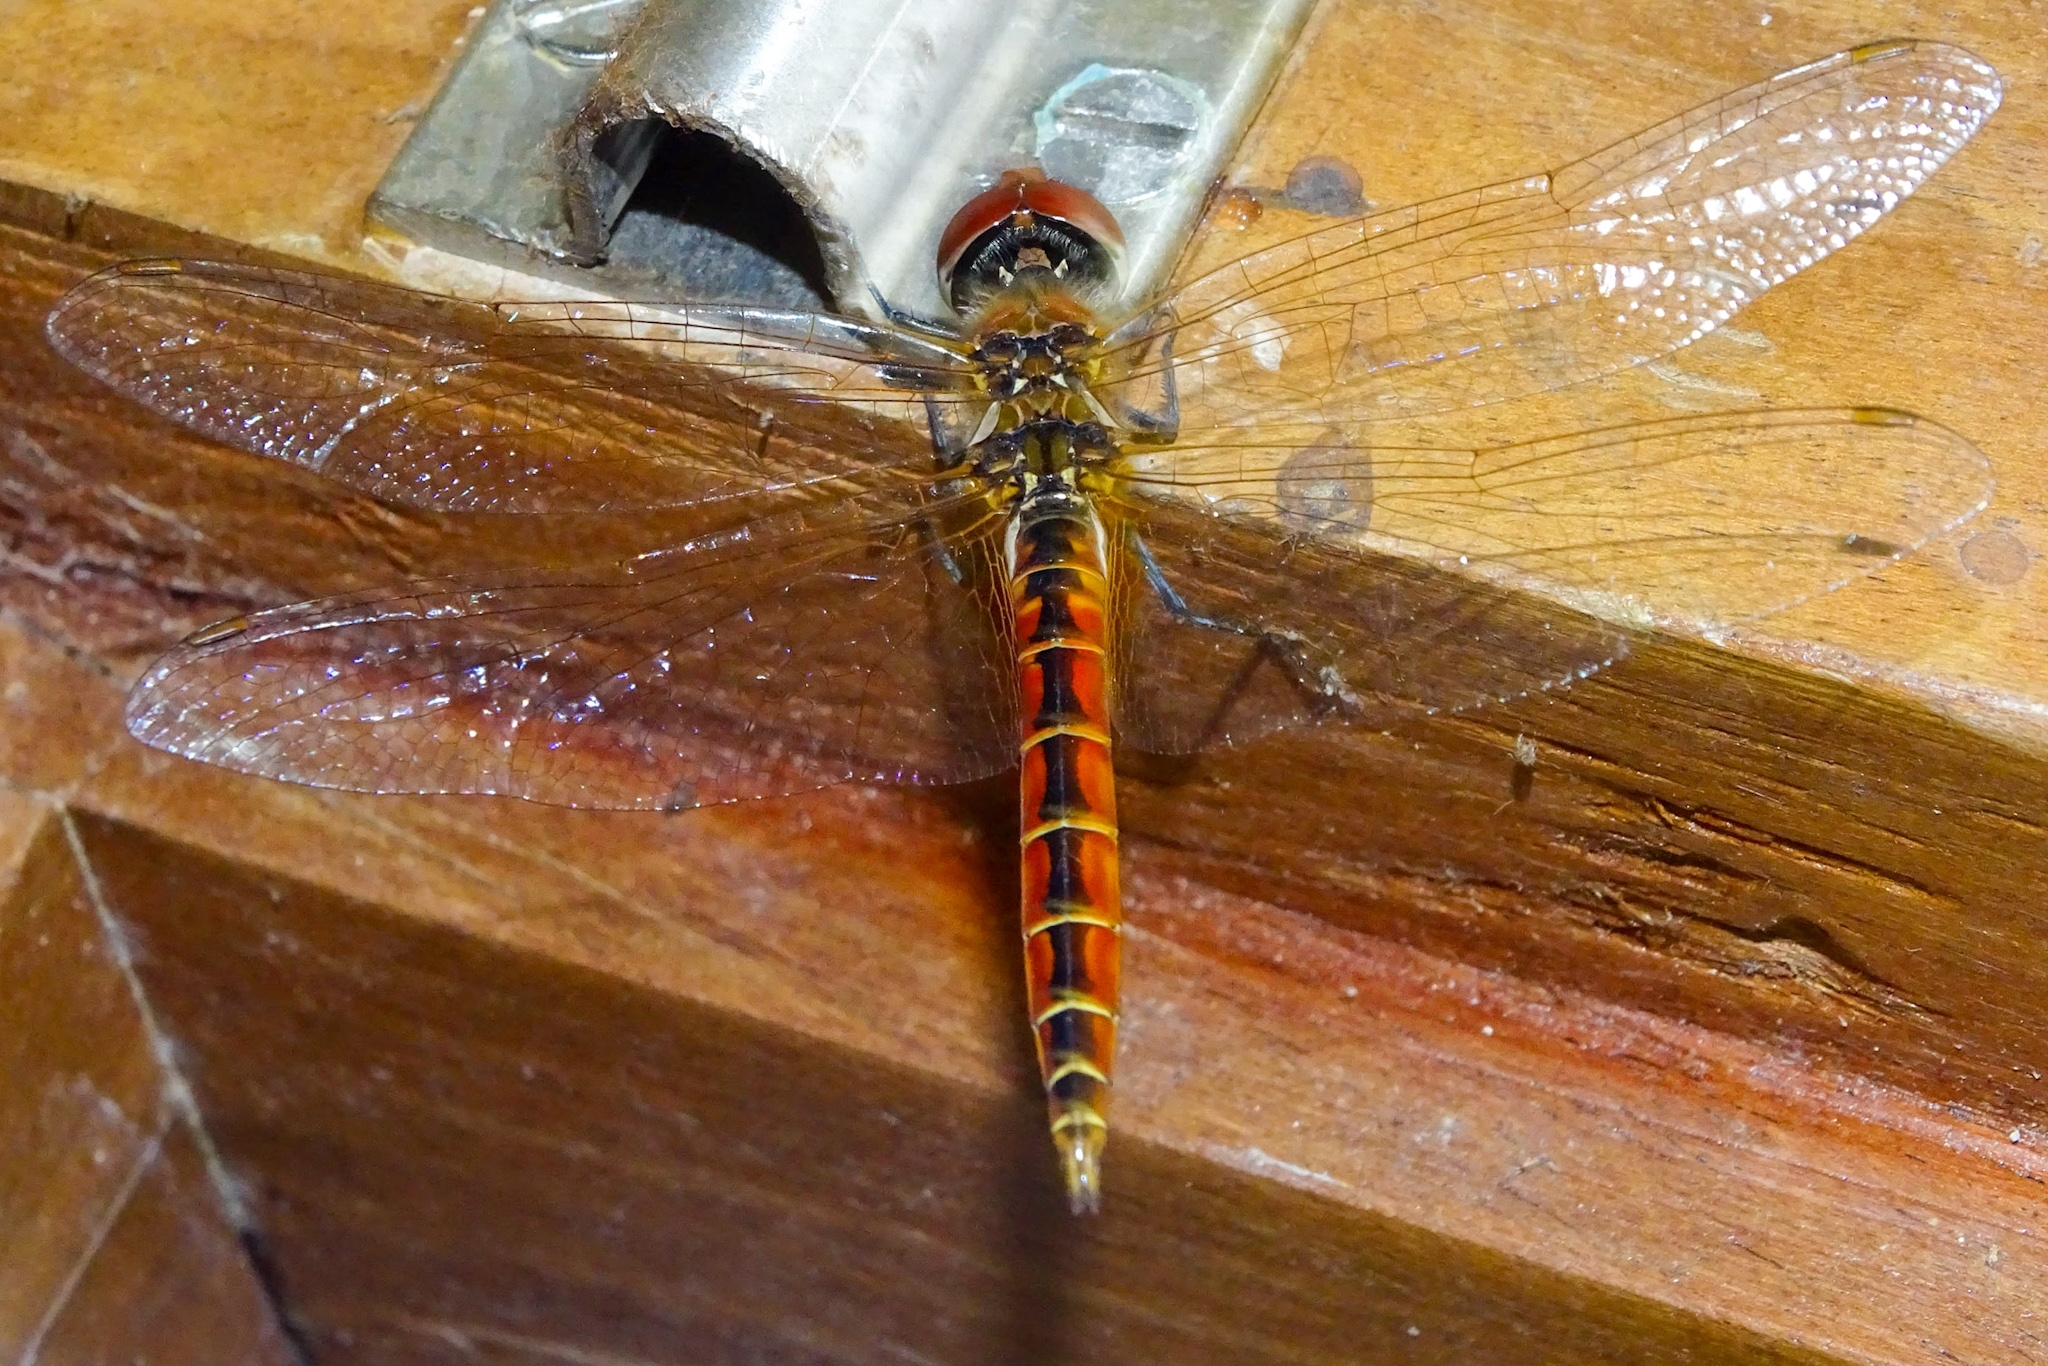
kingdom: Animalia
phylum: Arthropoda
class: Insecta
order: Odonata
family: Libellulidae
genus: Macrodiplax
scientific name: Macrodiplax cora
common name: Coastal glider
